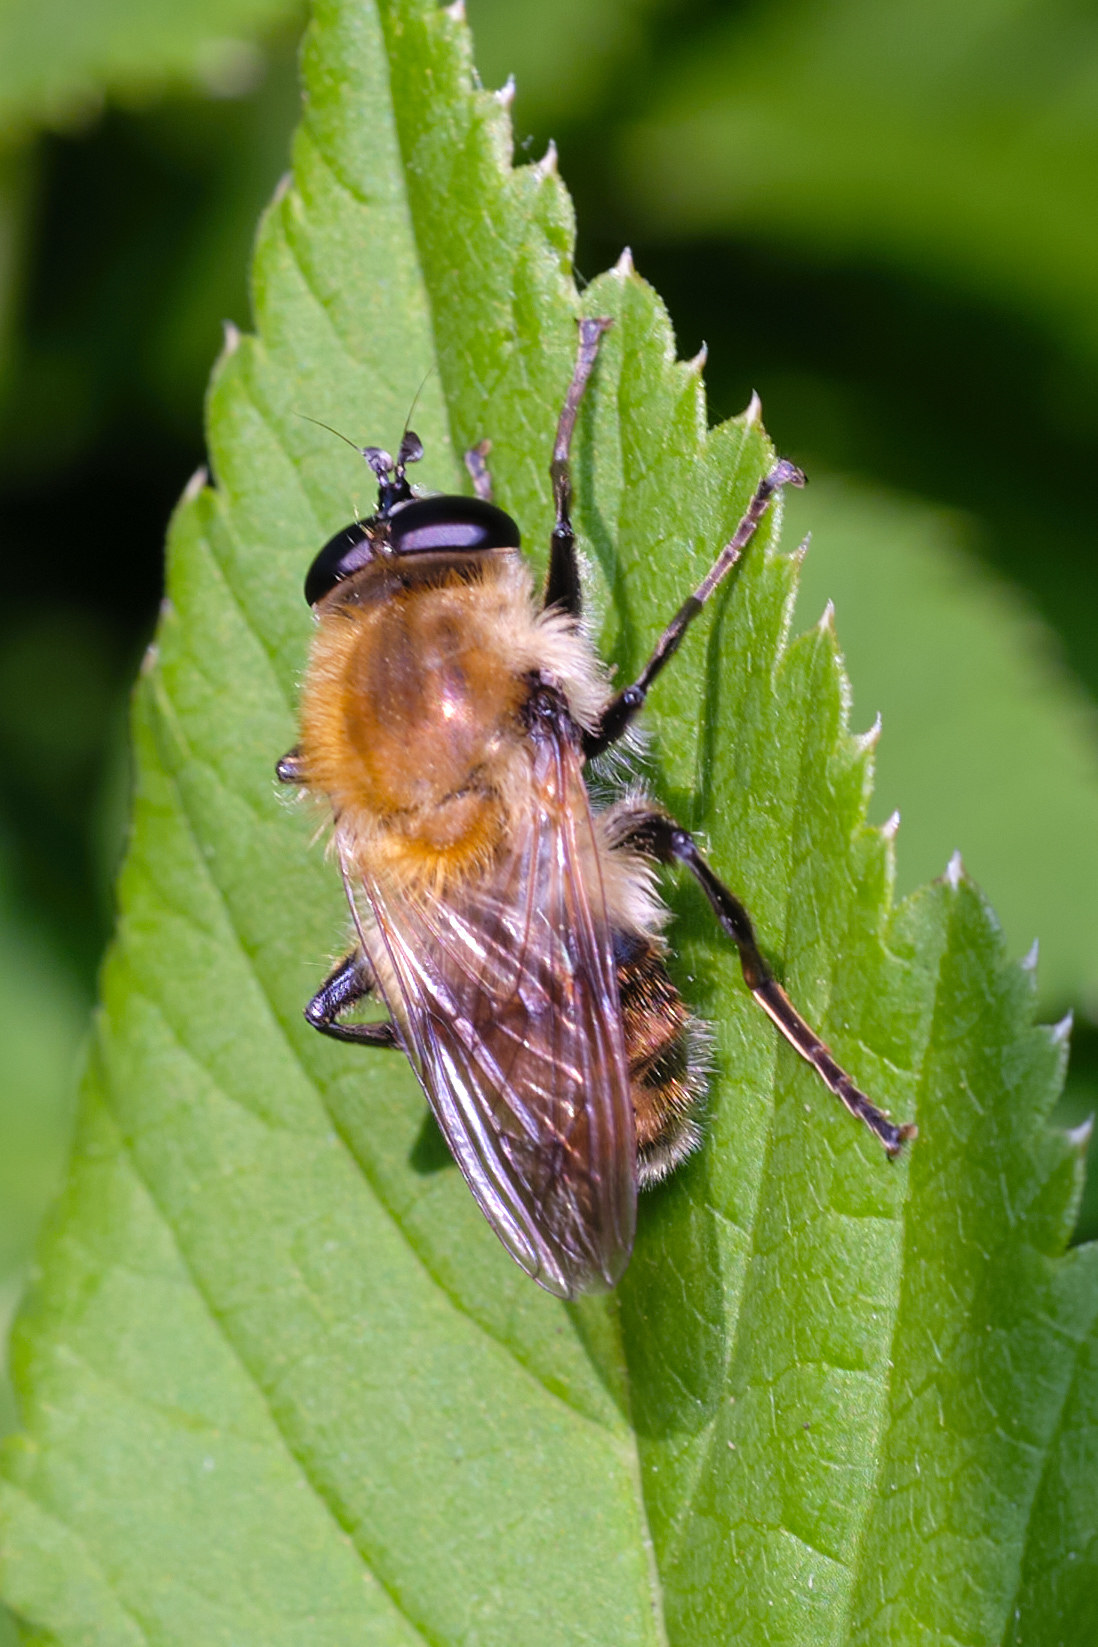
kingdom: Animalia
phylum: Arthropoda
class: Insecta
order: Diptera
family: Syrphidae
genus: Criorhina
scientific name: Criorhina floccosa
